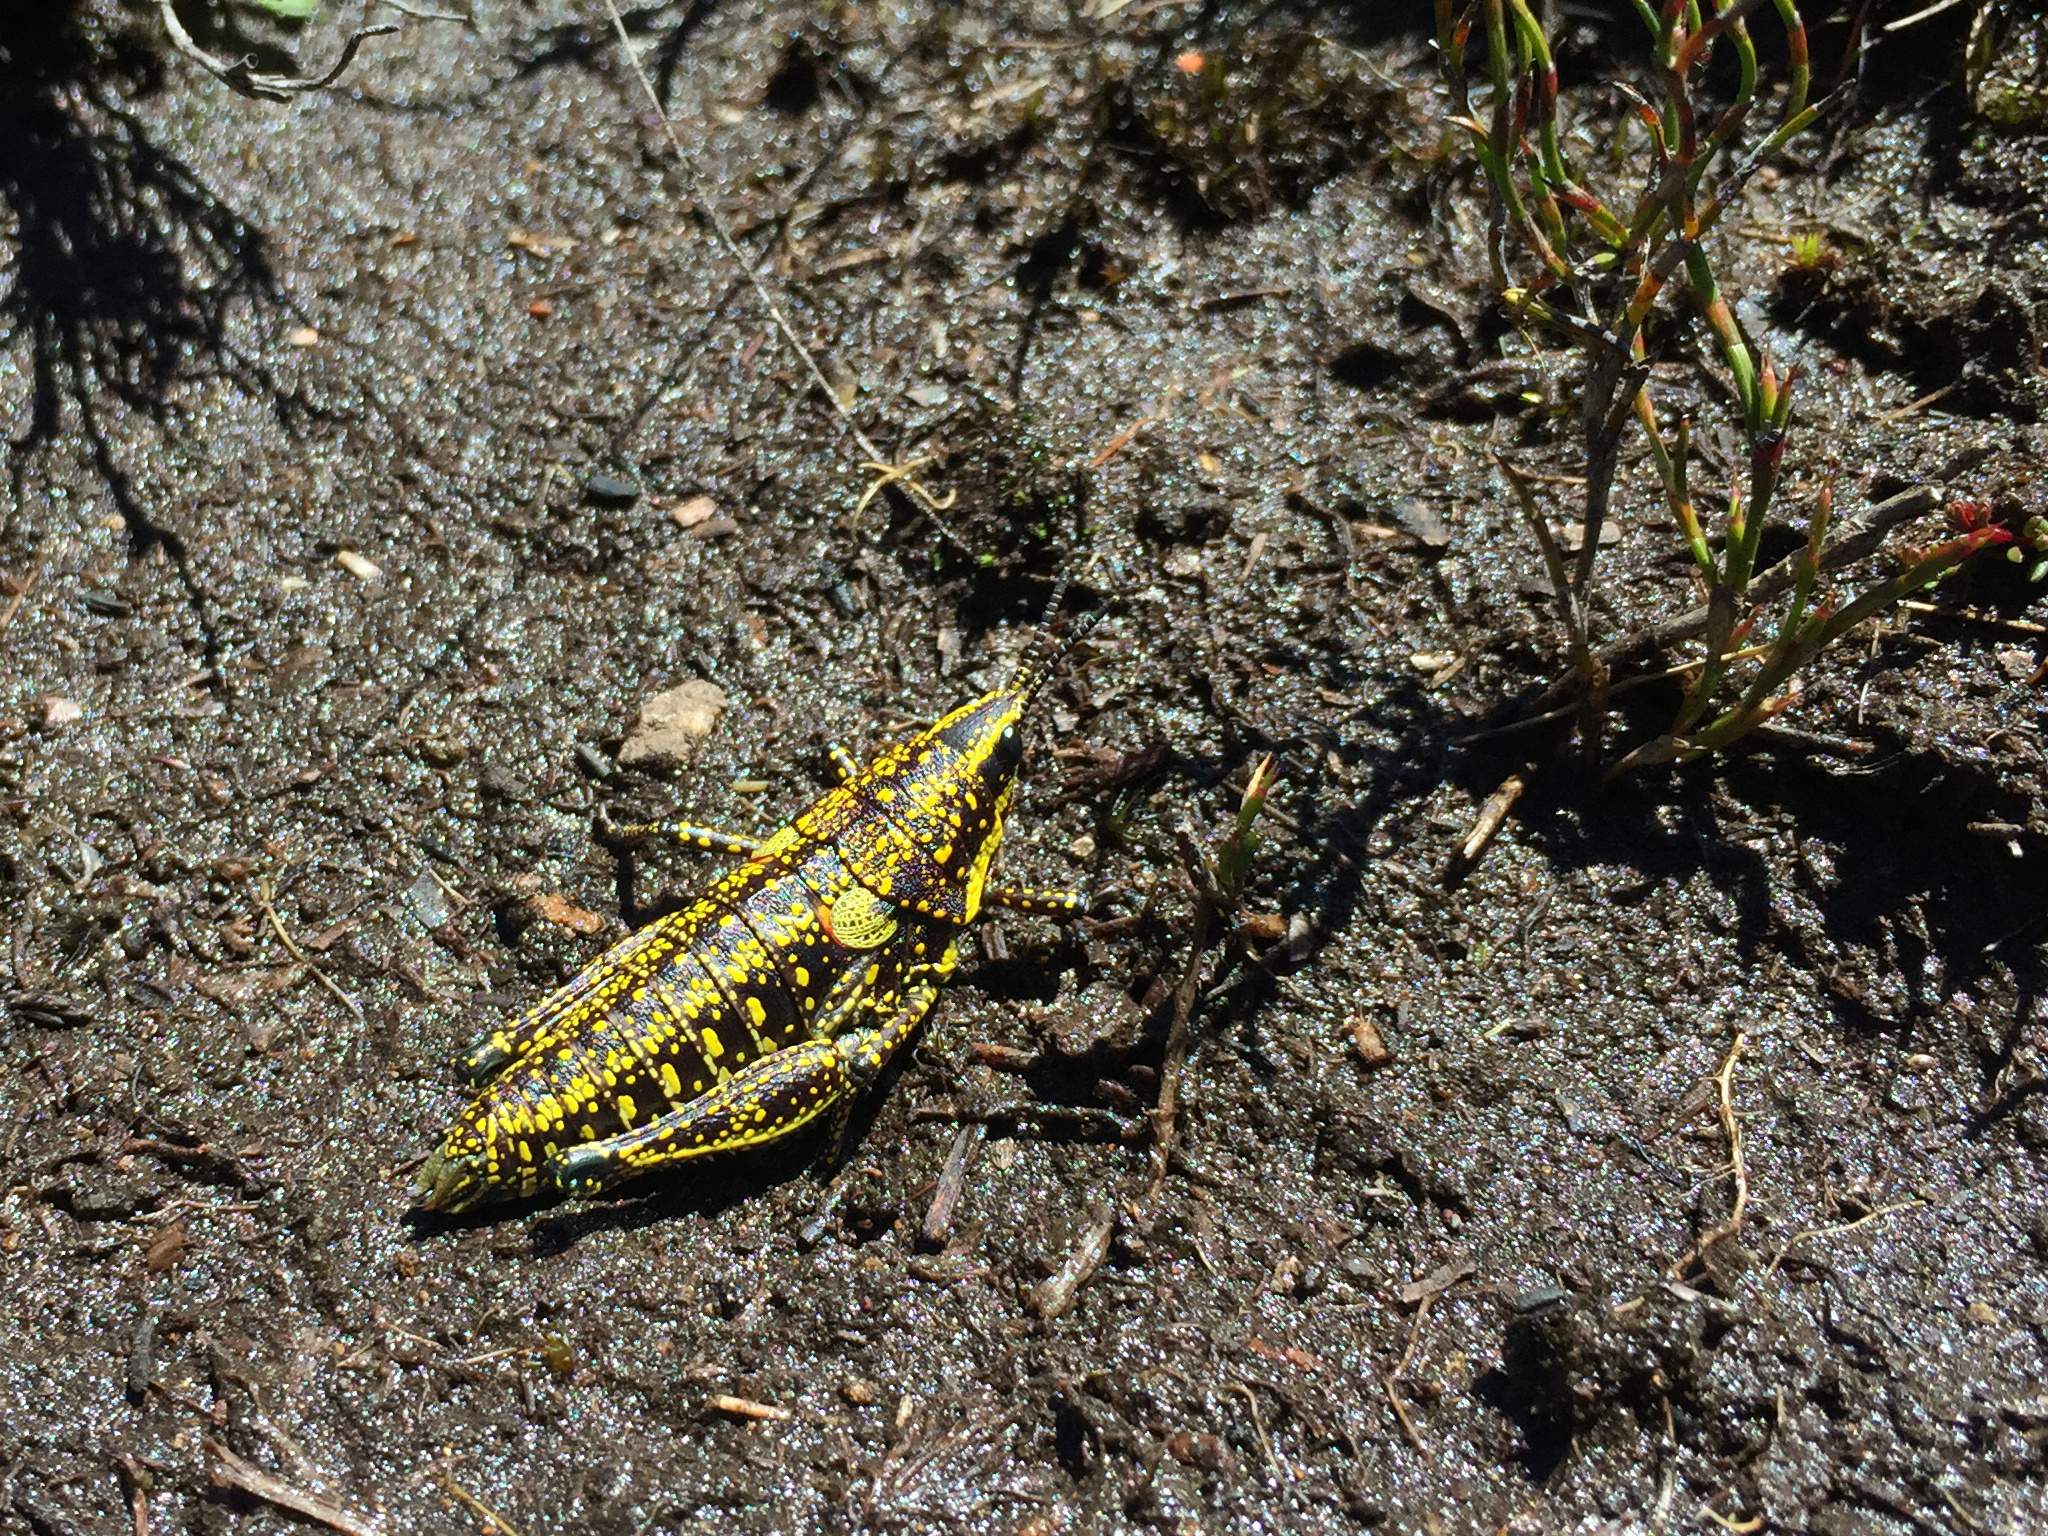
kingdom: Animalia
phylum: Arthropoda
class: Insecta
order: Orthoptera
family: Pyrgomorphidae
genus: Monistria
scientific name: Monistria concinna
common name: Southern pyrgomorph
